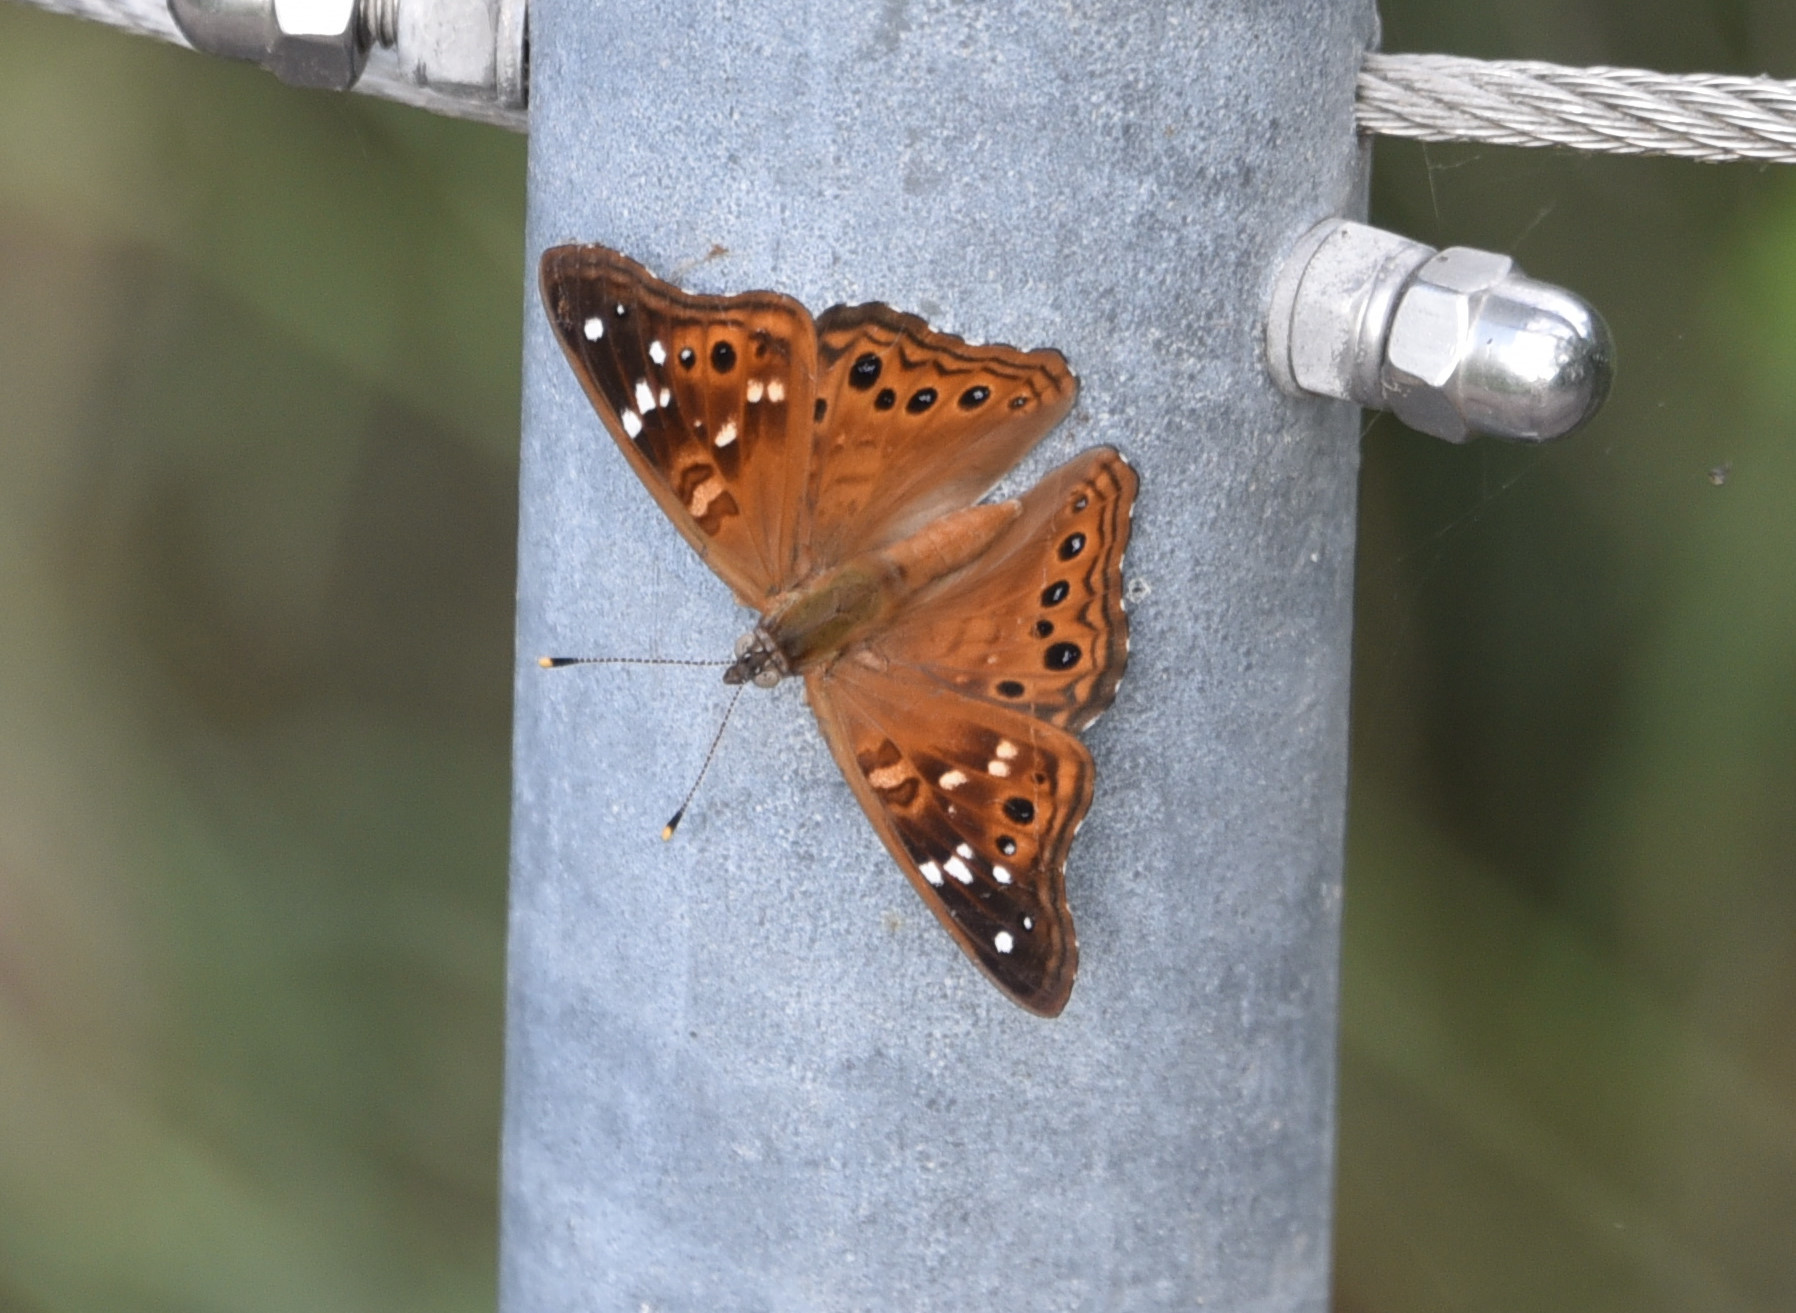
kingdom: Animalia
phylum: Arthropoda
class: Insecta
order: Lepidoptera
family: Nymphalidae
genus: Asterocampa
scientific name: Asterocampa leilia
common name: Empress leilia
